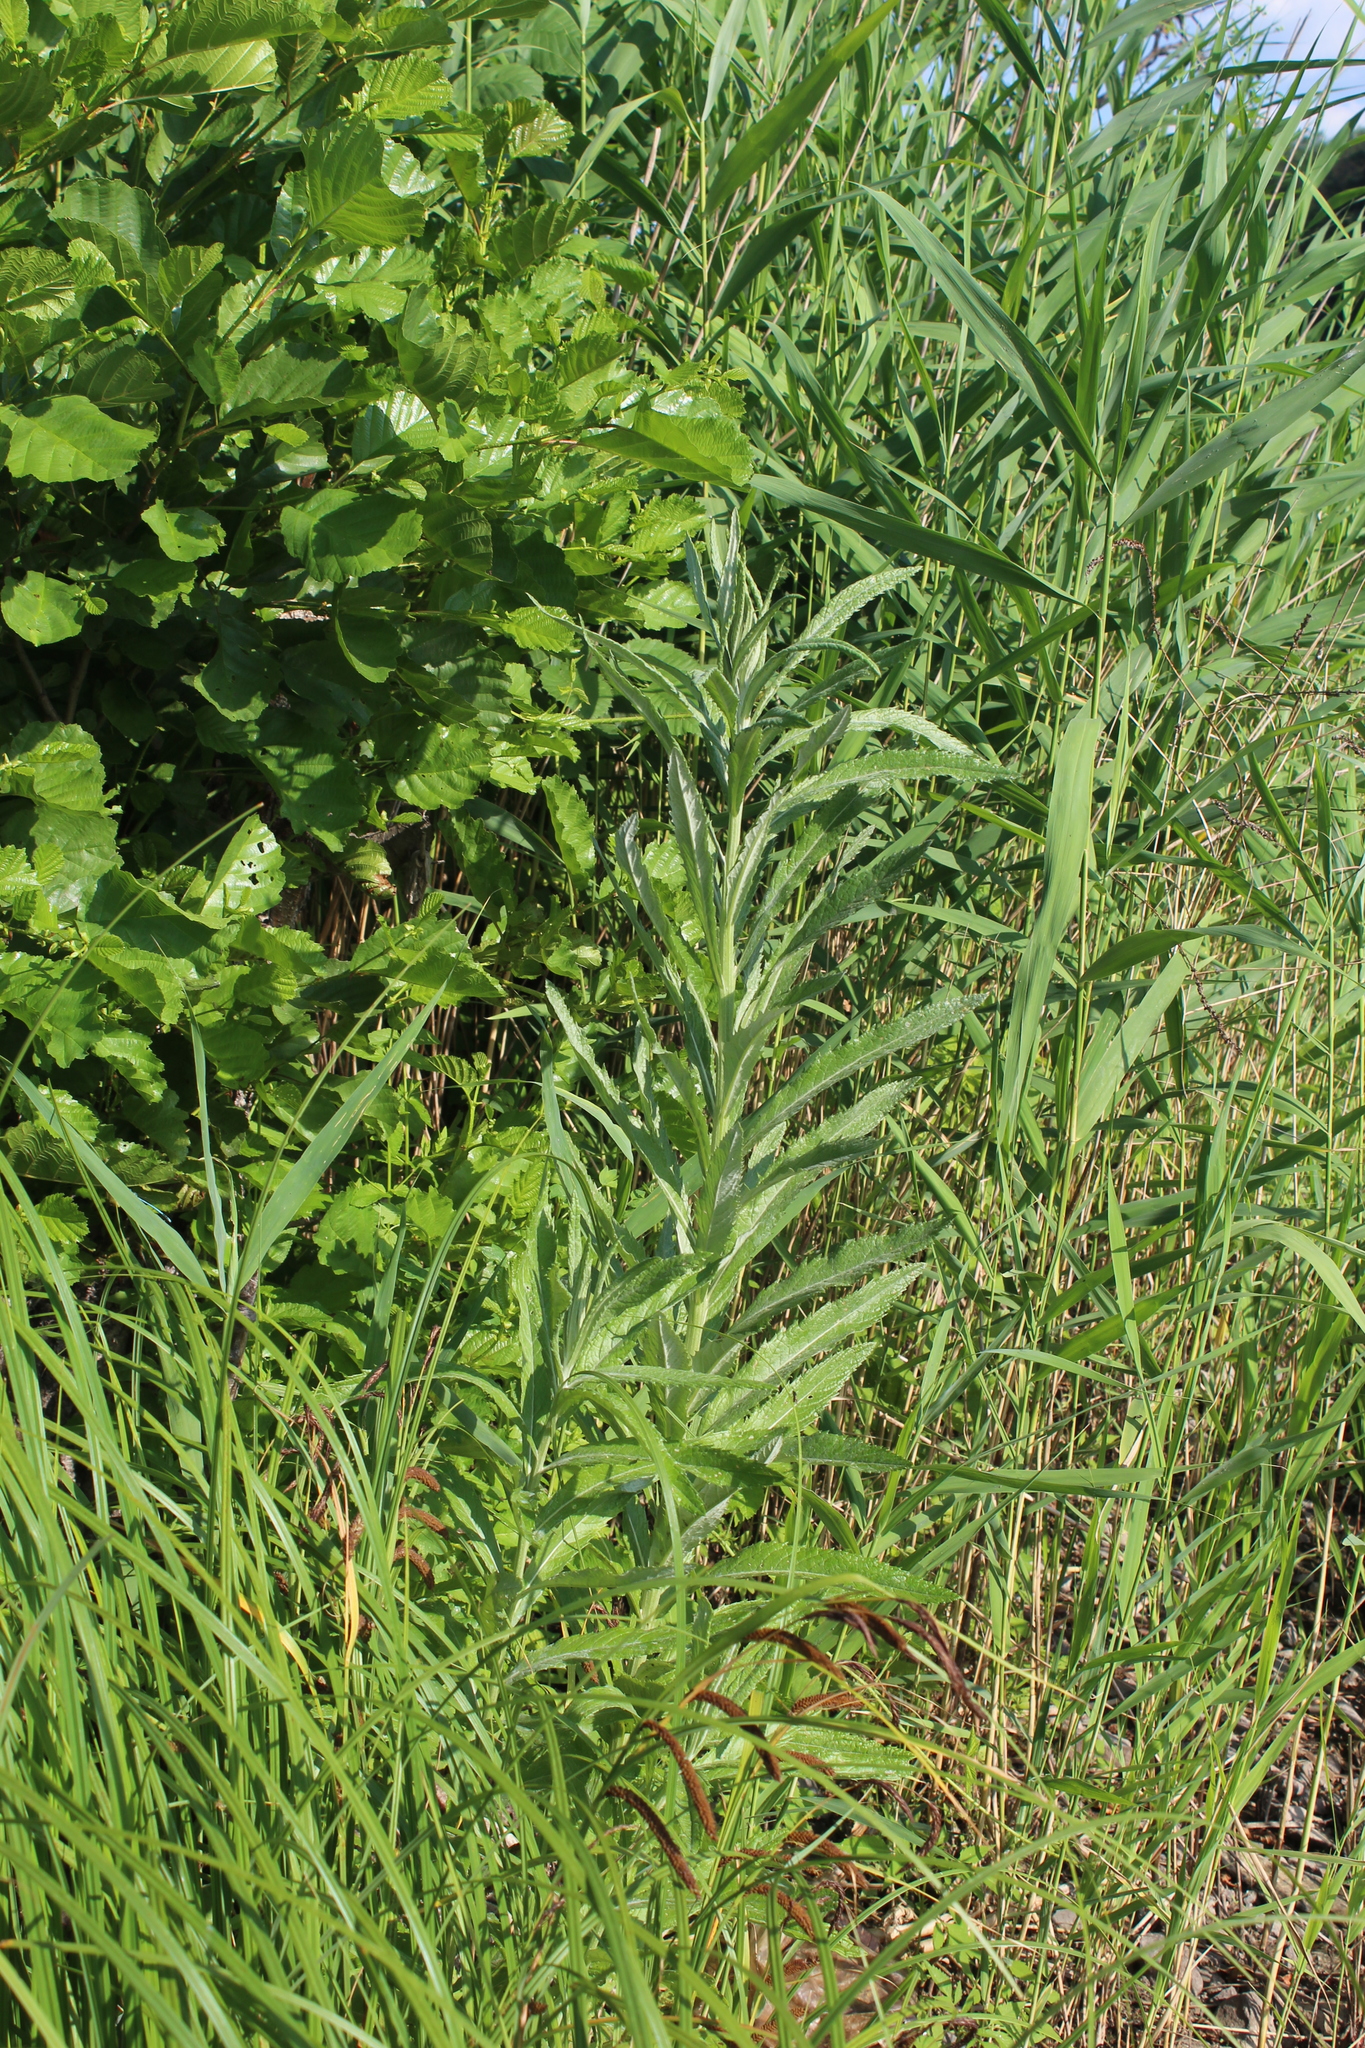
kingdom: Plantae
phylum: Tracheophyta
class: Magnoliopsida
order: Asterales
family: Asteraceae
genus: Jacobaea
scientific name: Jacobaea paludosa
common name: Fen ragwort
